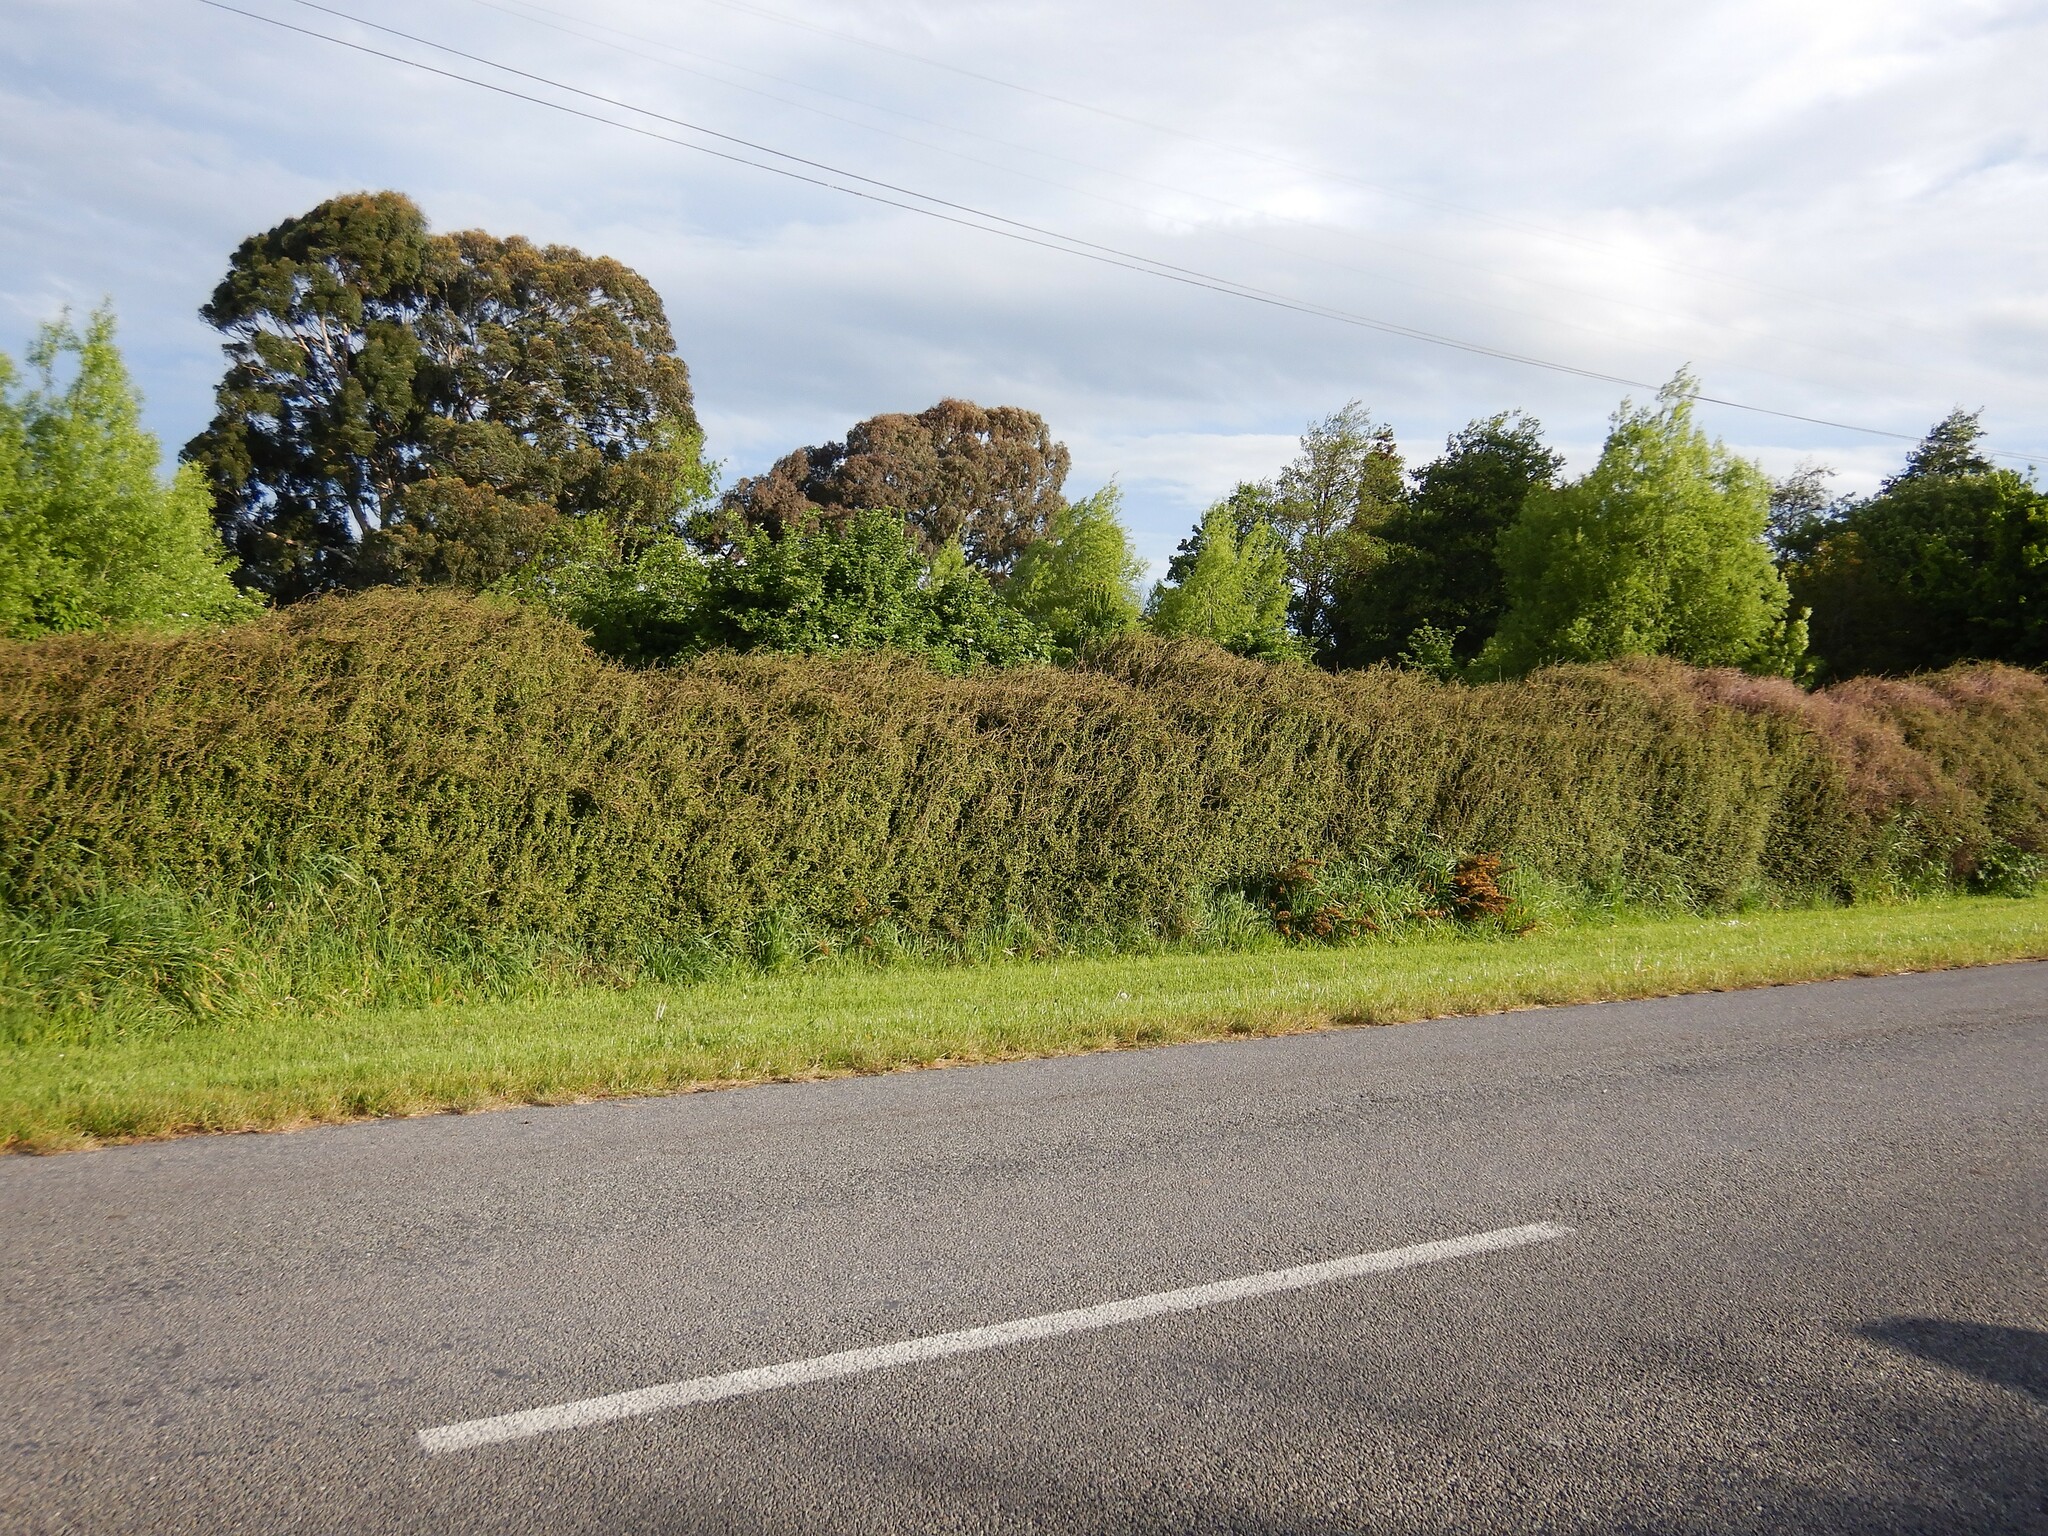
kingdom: Plantae
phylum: Tracheophyta
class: Magnoliopsida
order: Caryophyllales
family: Polygonaceae
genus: Muehlenbeckia
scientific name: Muehlenbeckia complexa
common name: Wireplant
